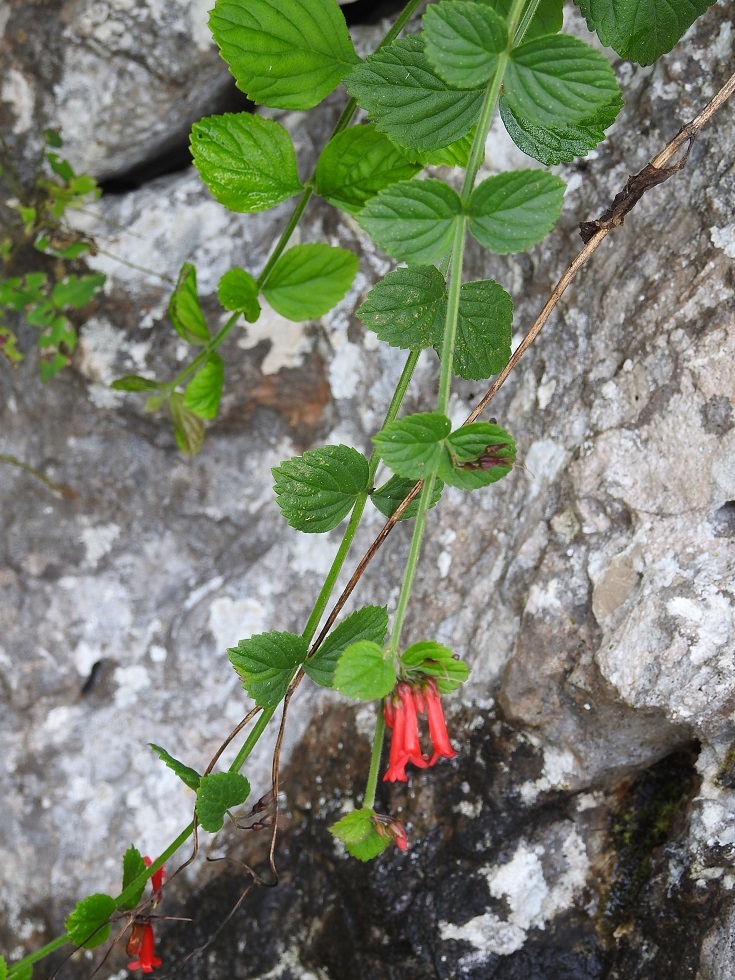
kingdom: Plantae
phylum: Tracheophyta
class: Magnoliopsida
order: Lamiales
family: Plantaginaceae
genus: Russelia
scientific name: Russelia sarmentosa
